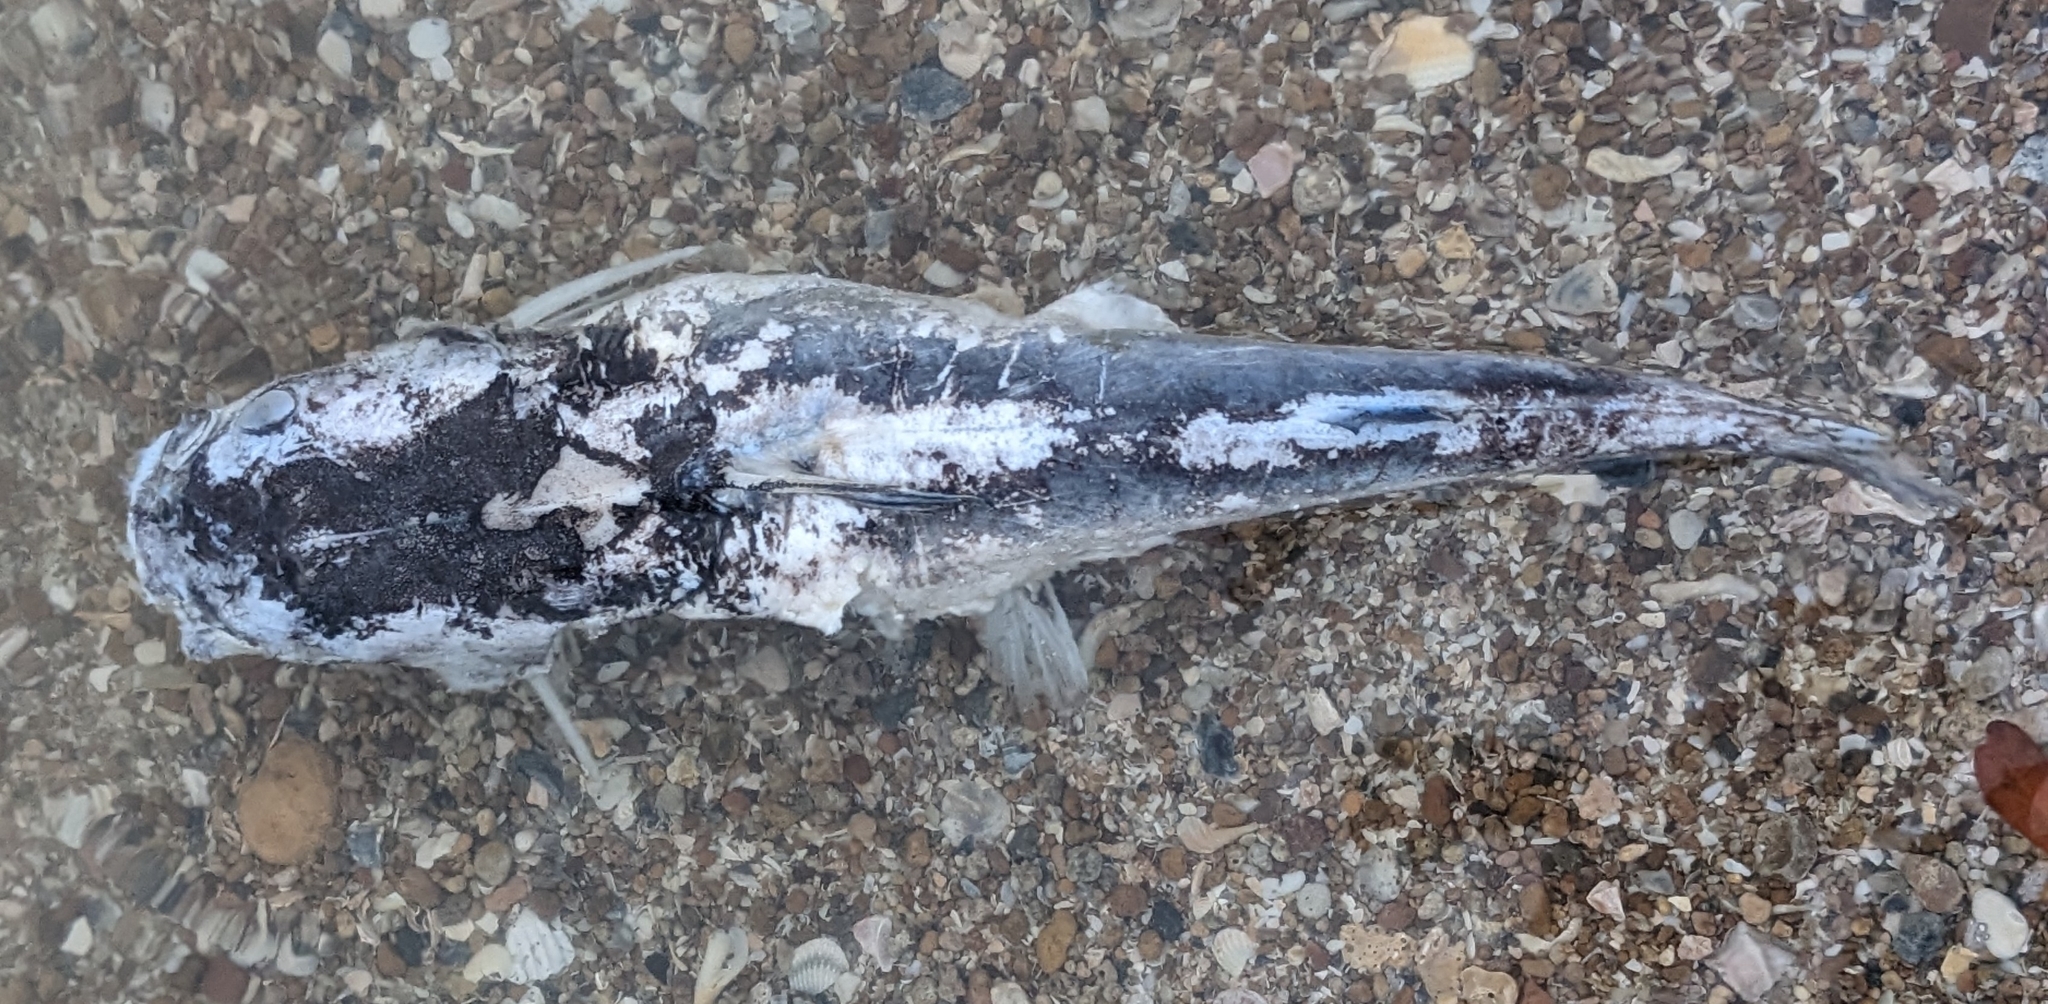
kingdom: Animalia
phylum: Chordata
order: Siluriformes
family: Ariidae
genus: Ariopsis
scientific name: Ariopsis felis
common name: Hardhead catfish
